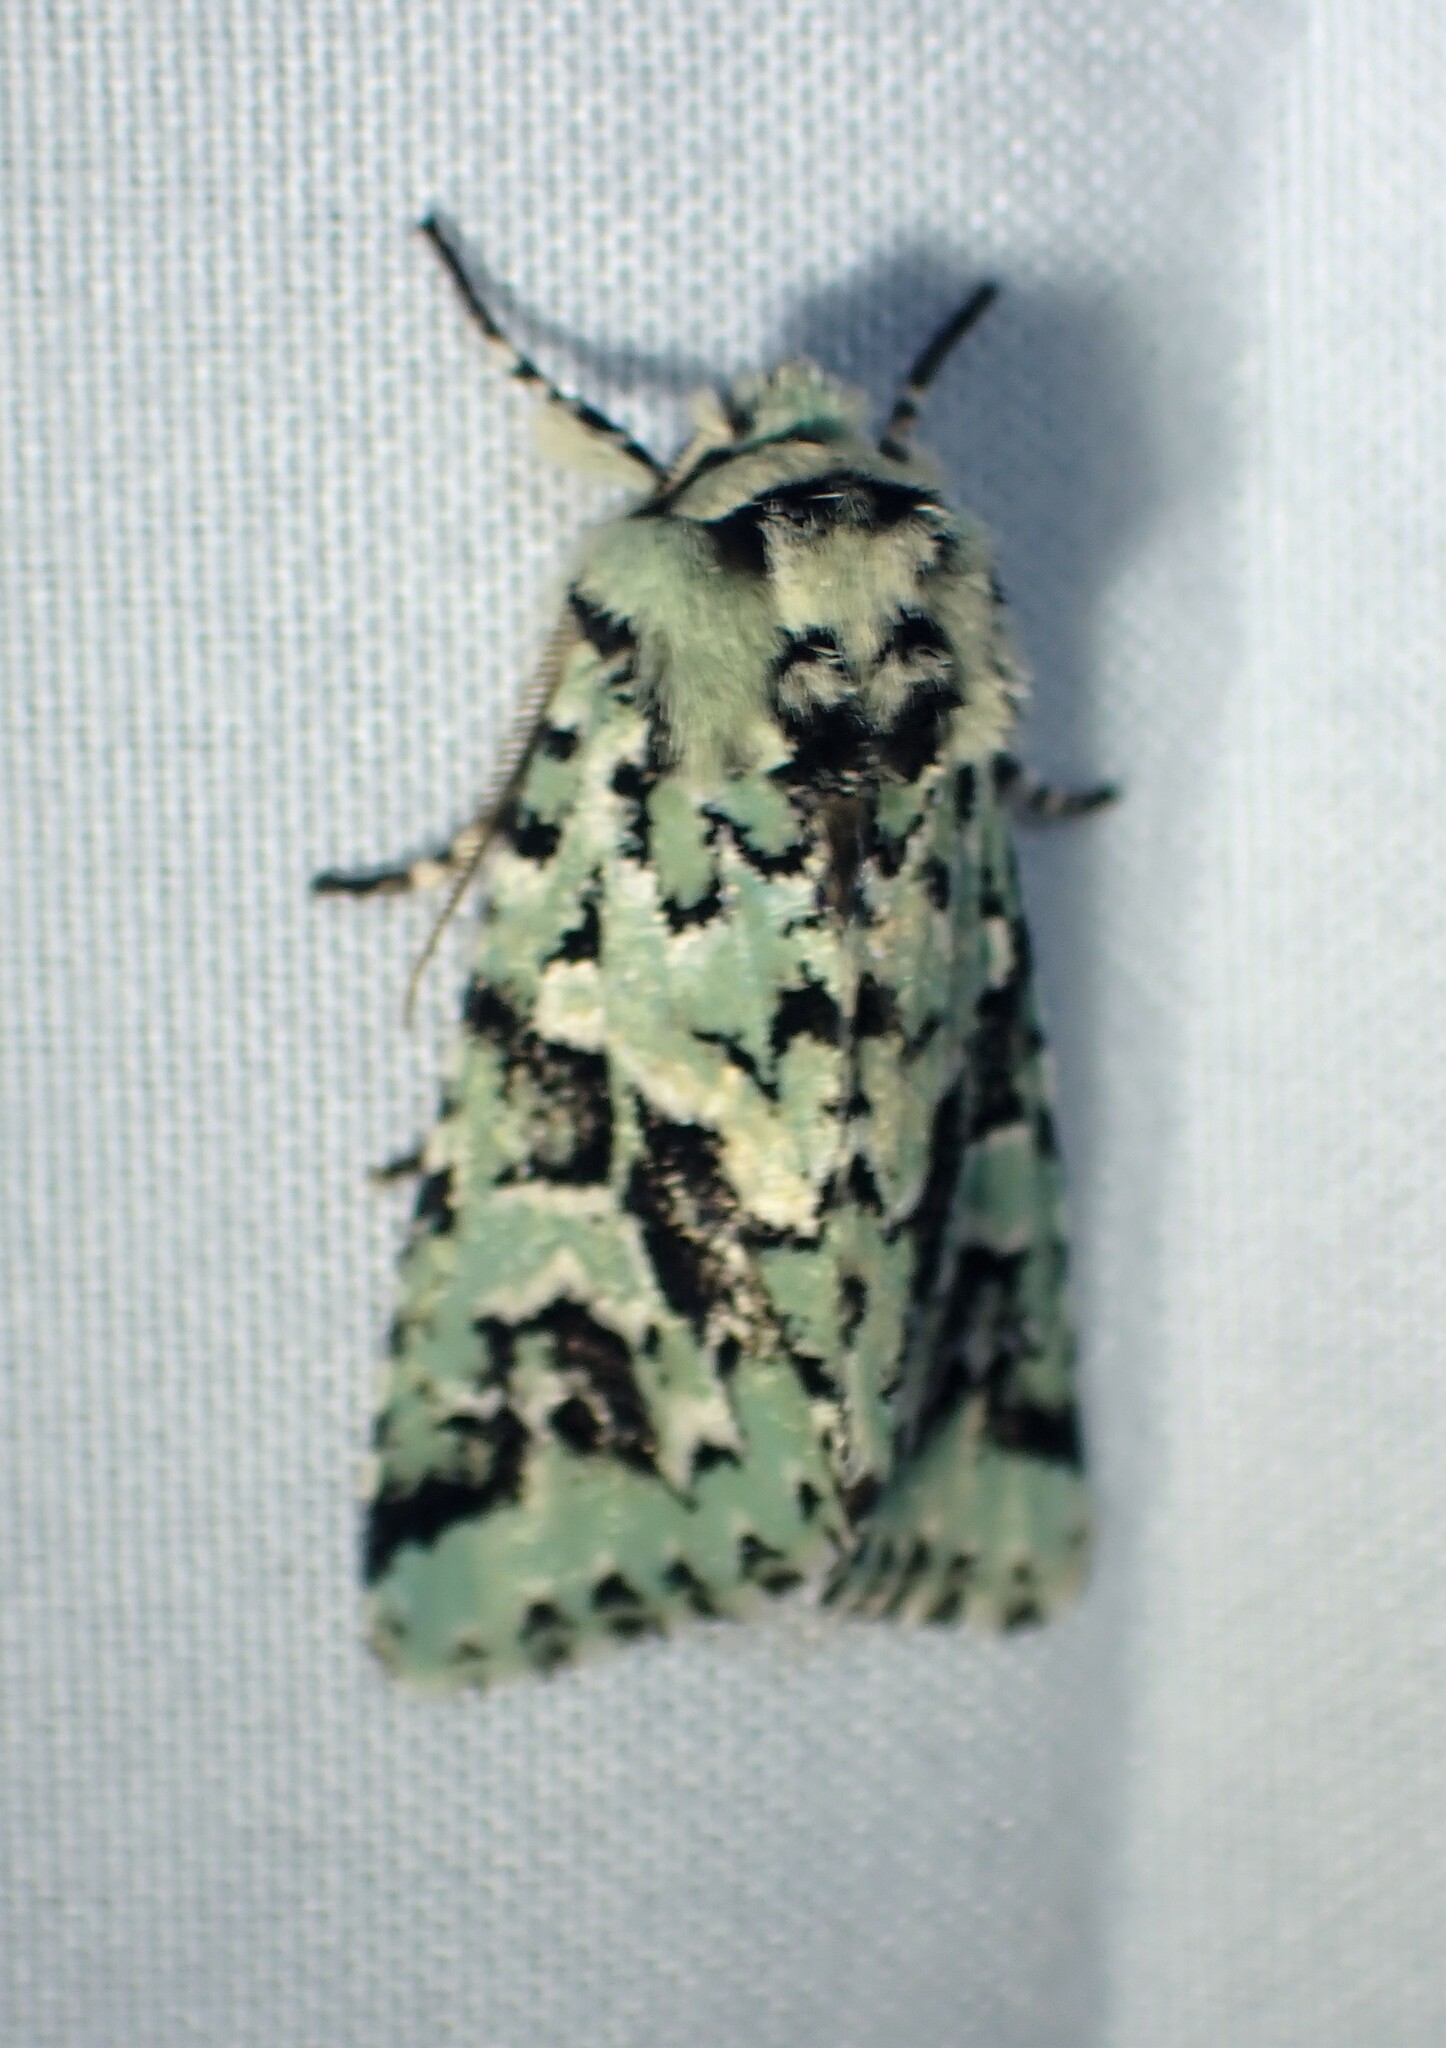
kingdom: Animalia
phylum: Arthropoda
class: Insecta
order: Lepidoptera
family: Noctuidae
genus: Feralia
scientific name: Feralia comstocki
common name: Comstock's sallow
